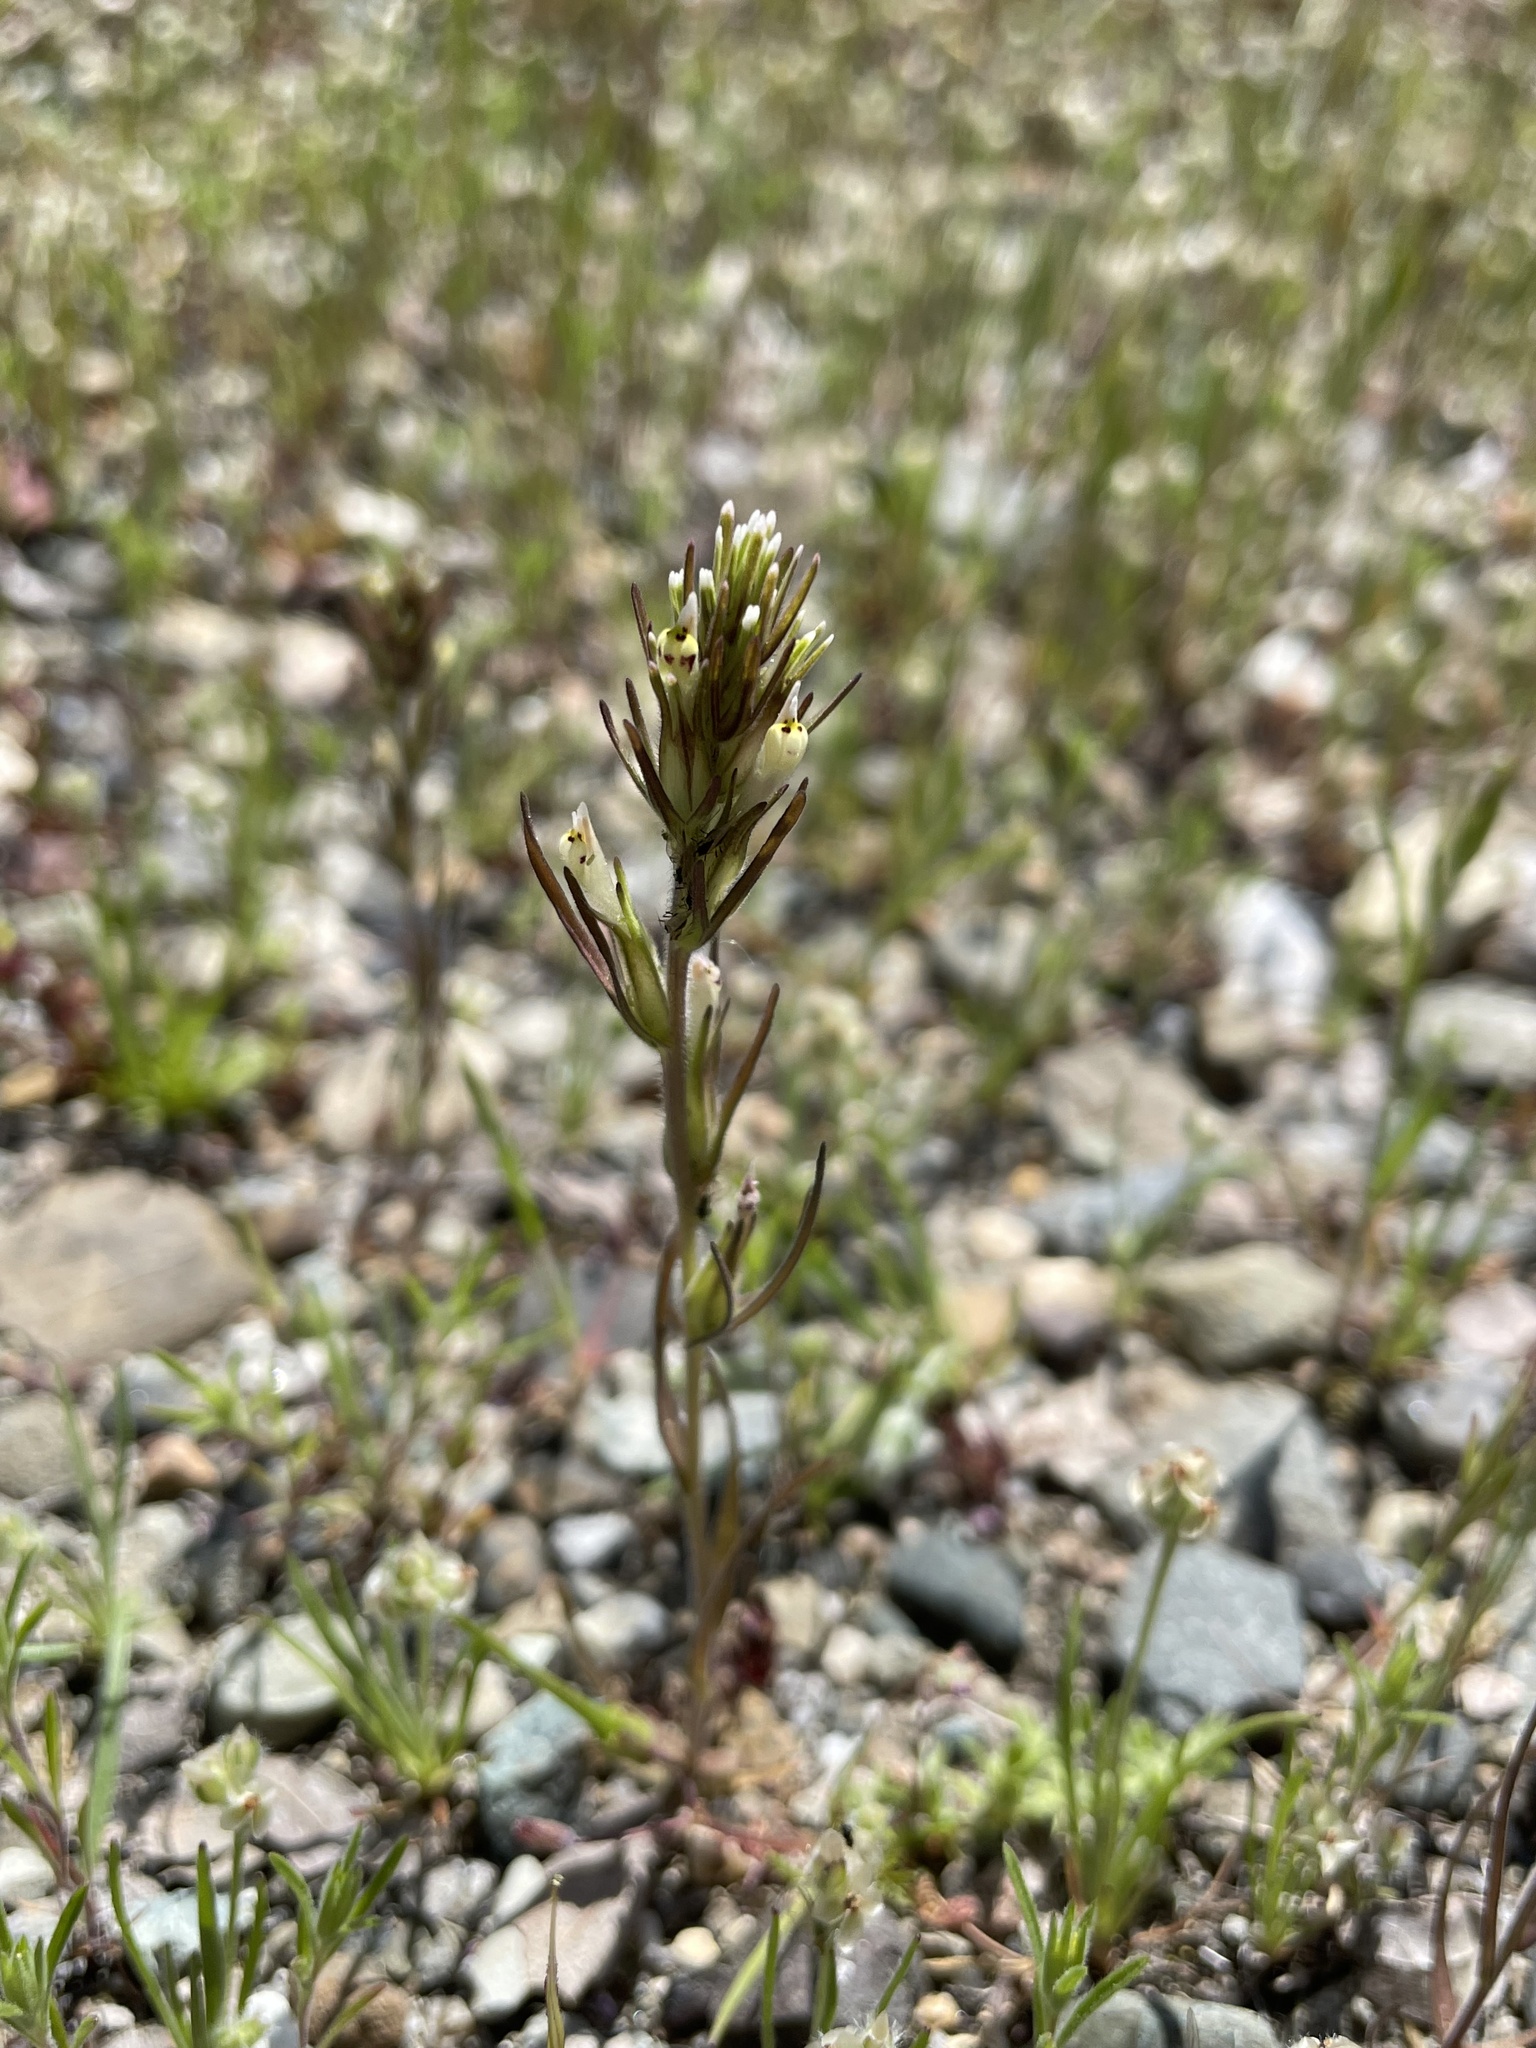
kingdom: Plantae
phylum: Tracheophyta
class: Magnoliopsida
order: Lamiales
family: Orobanchaceae
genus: Castilleja
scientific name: Castilleja attenuata
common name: Valley tassels
